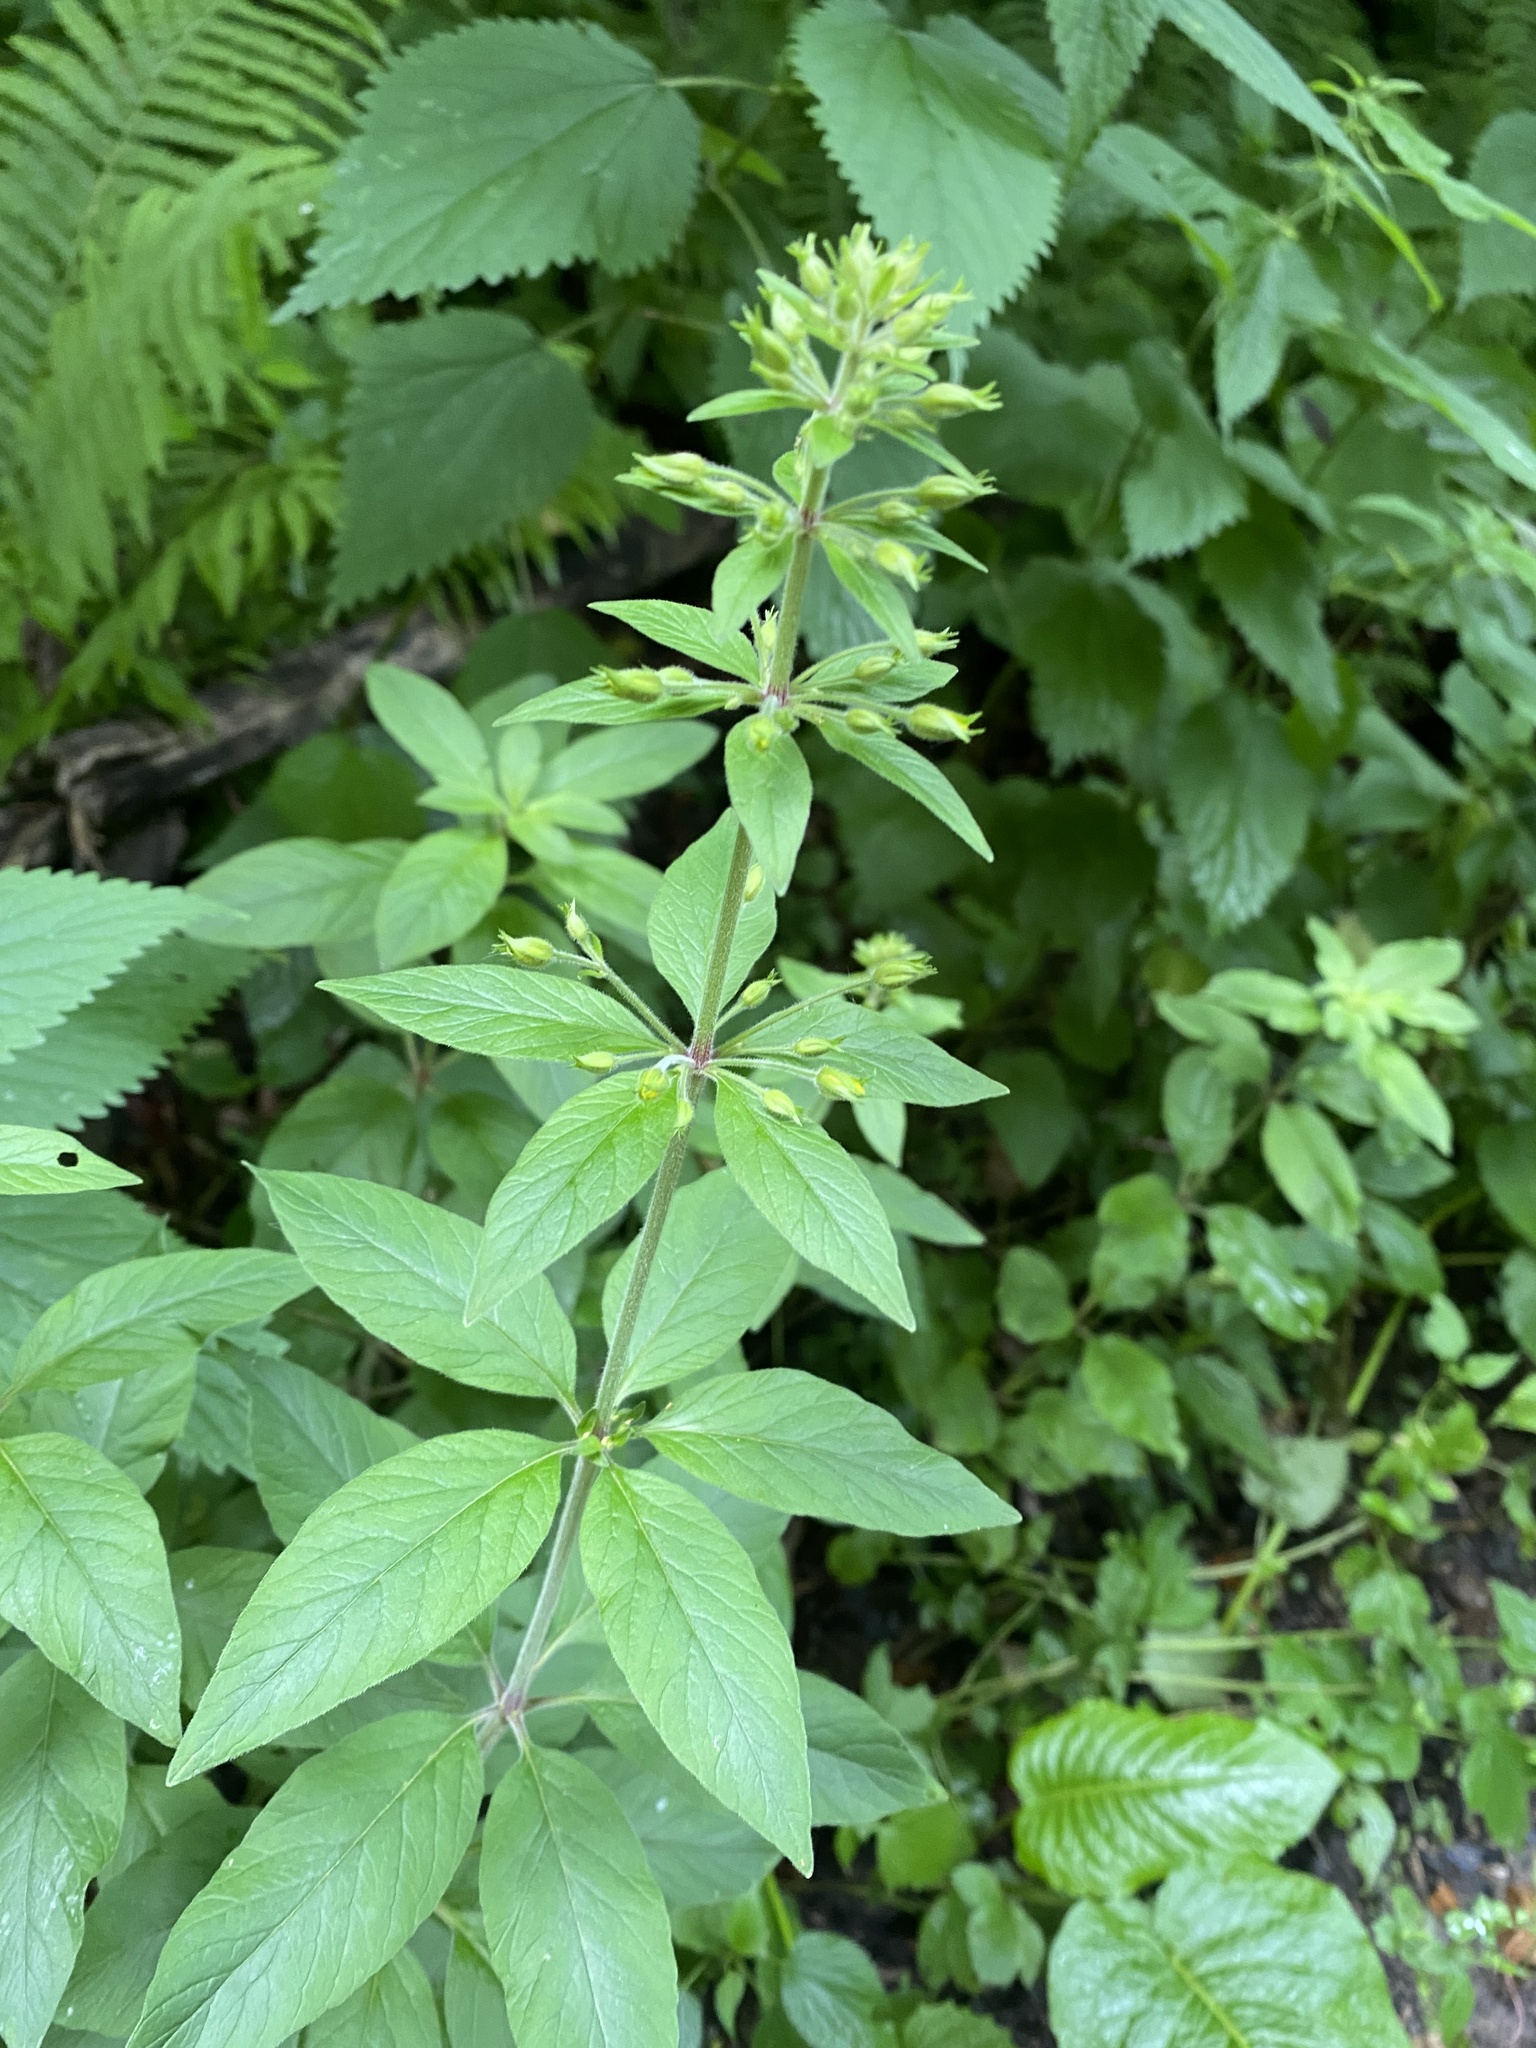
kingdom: Plantae
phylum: Tracheophyta
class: Magnoliopsida
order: Ericales
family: Primulaceae
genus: Lysimachia
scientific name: Lysimachia verticillaris
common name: Yellow loosestrife
